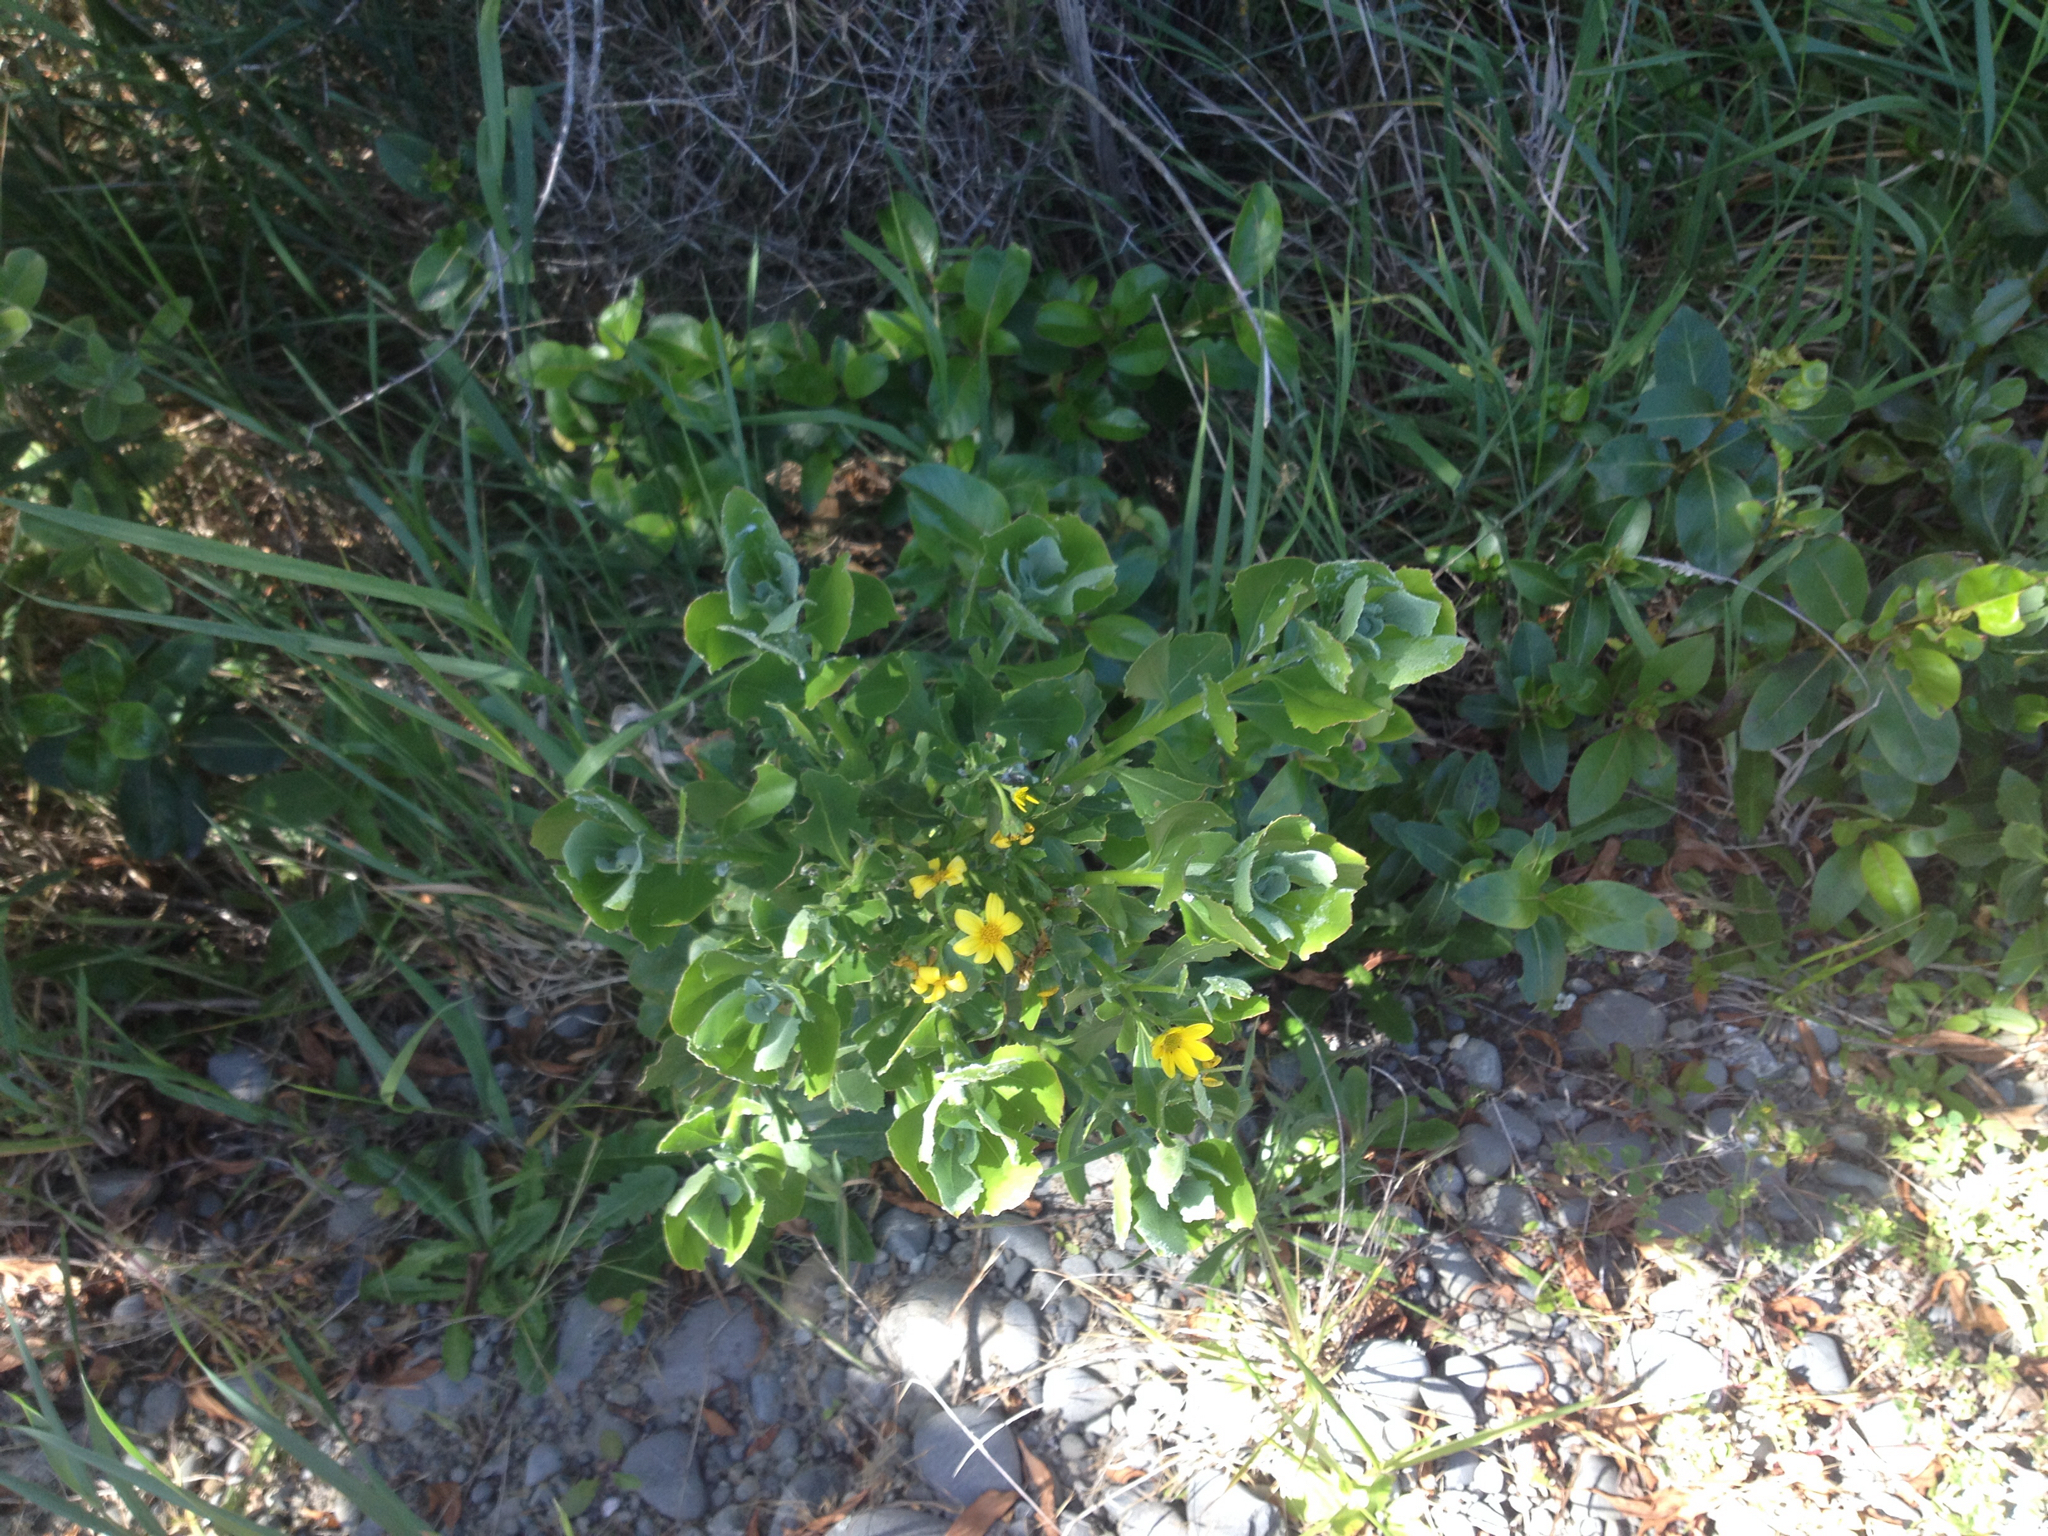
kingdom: Plantae
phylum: Tracheophyta
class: Magnoliopsida
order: Asterales
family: Asteraceae
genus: Osteospermum
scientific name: Osteospermum moniliferum
